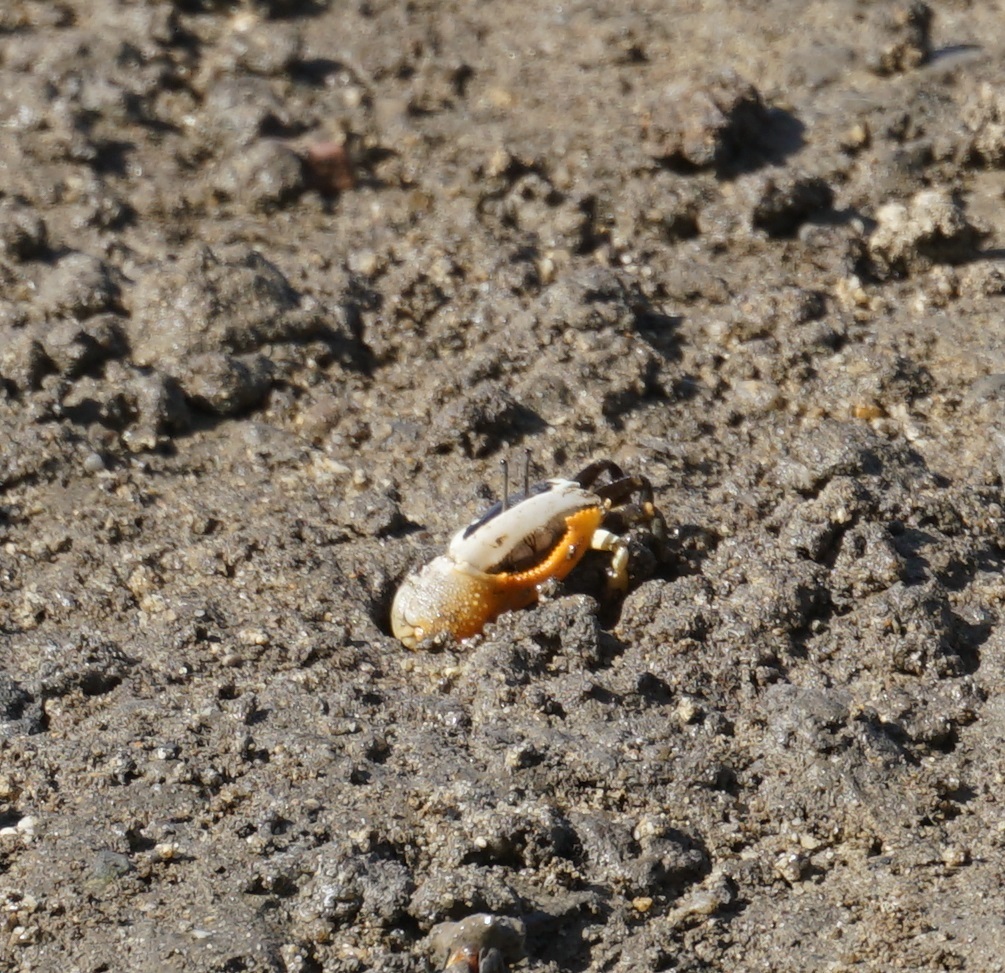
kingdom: Animalia
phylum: Arthropoda
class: Malacostraca
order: Decapoda
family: Ocypodidae
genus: Gelasimus
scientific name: Gelasimus vomeris
